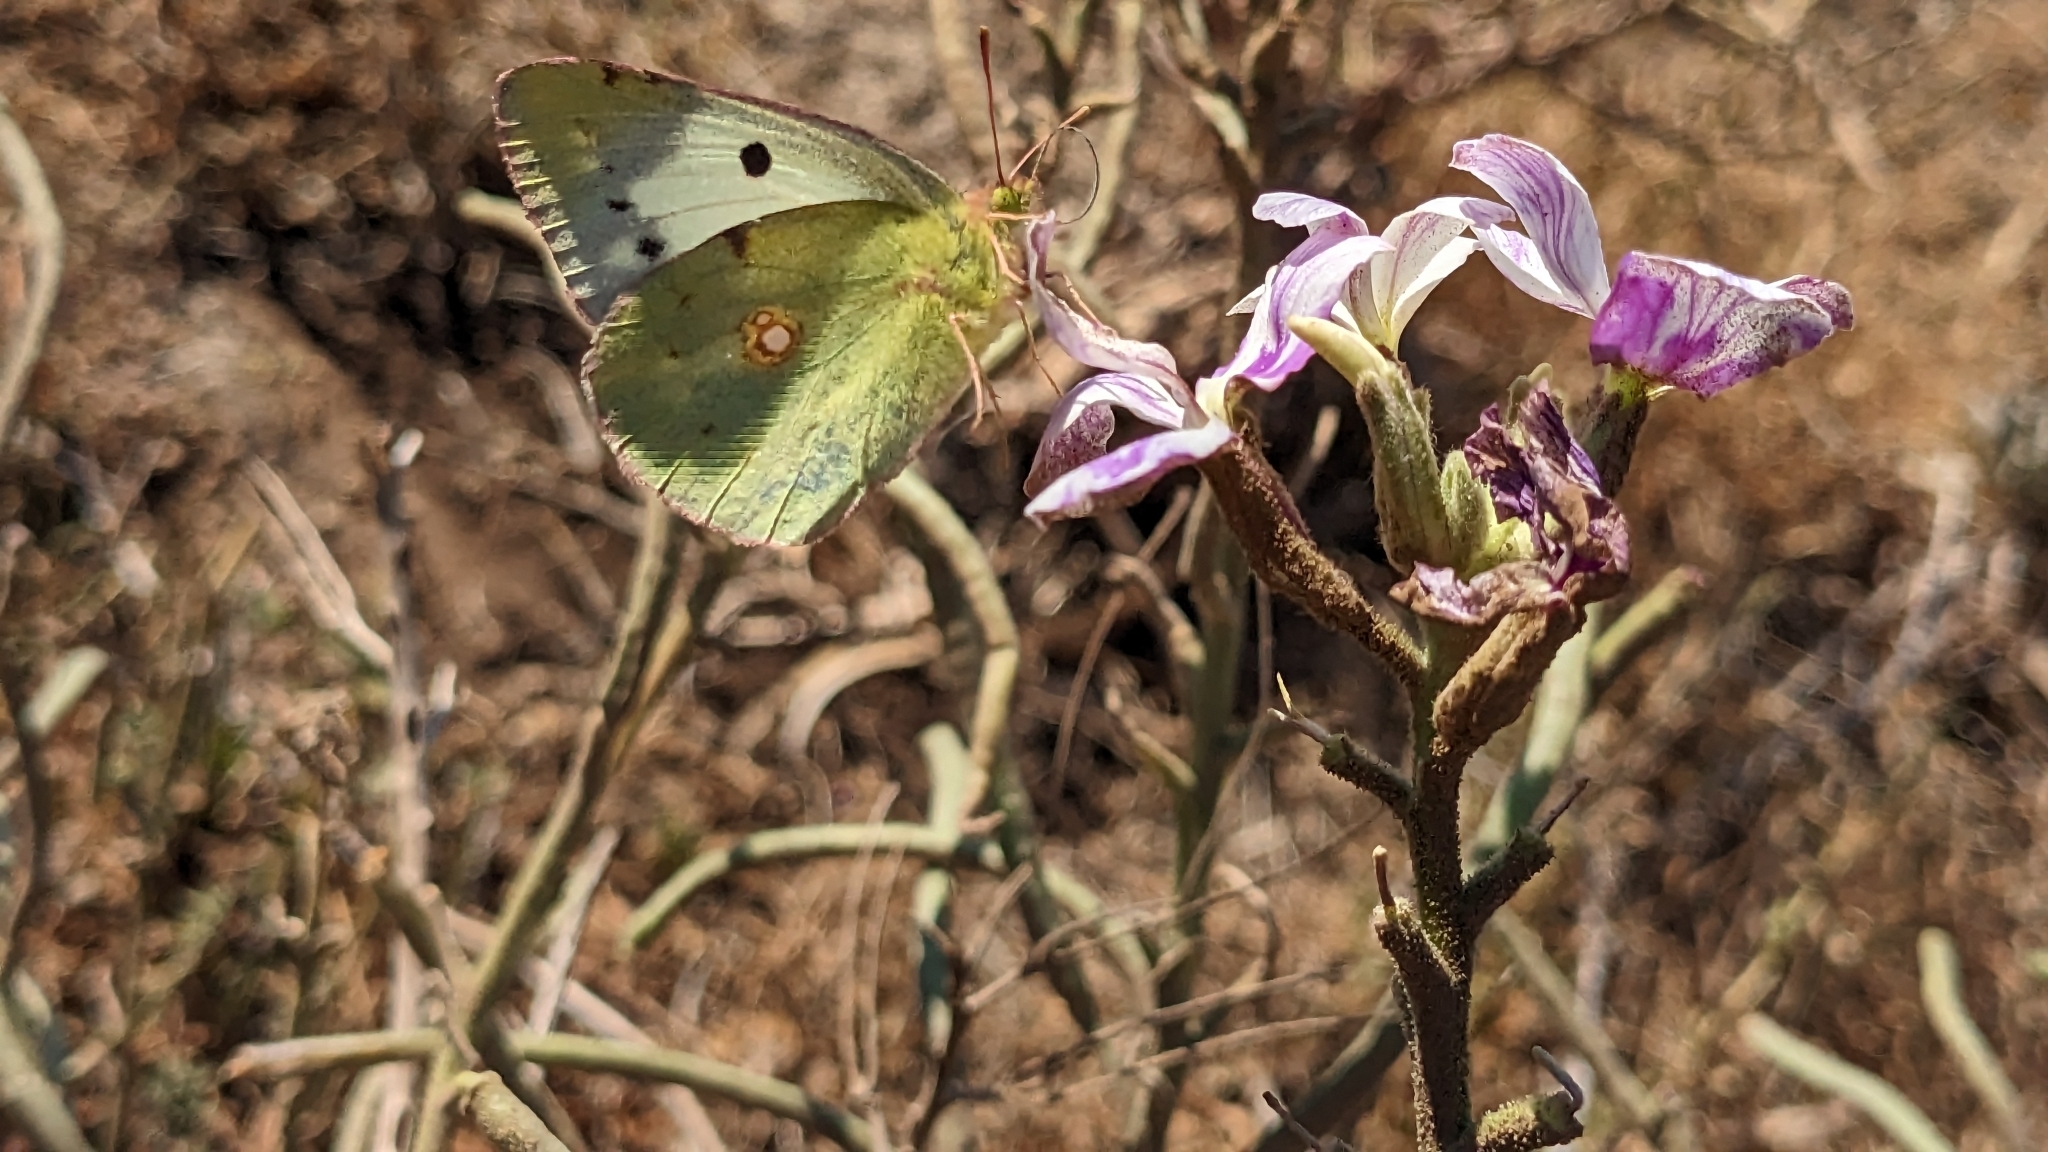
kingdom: Animalia
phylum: Arthropoda
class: Insecta
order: Lepidoptera
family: Pieridae
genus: Colias
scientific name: Colias croceus
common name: Clouded yellow
